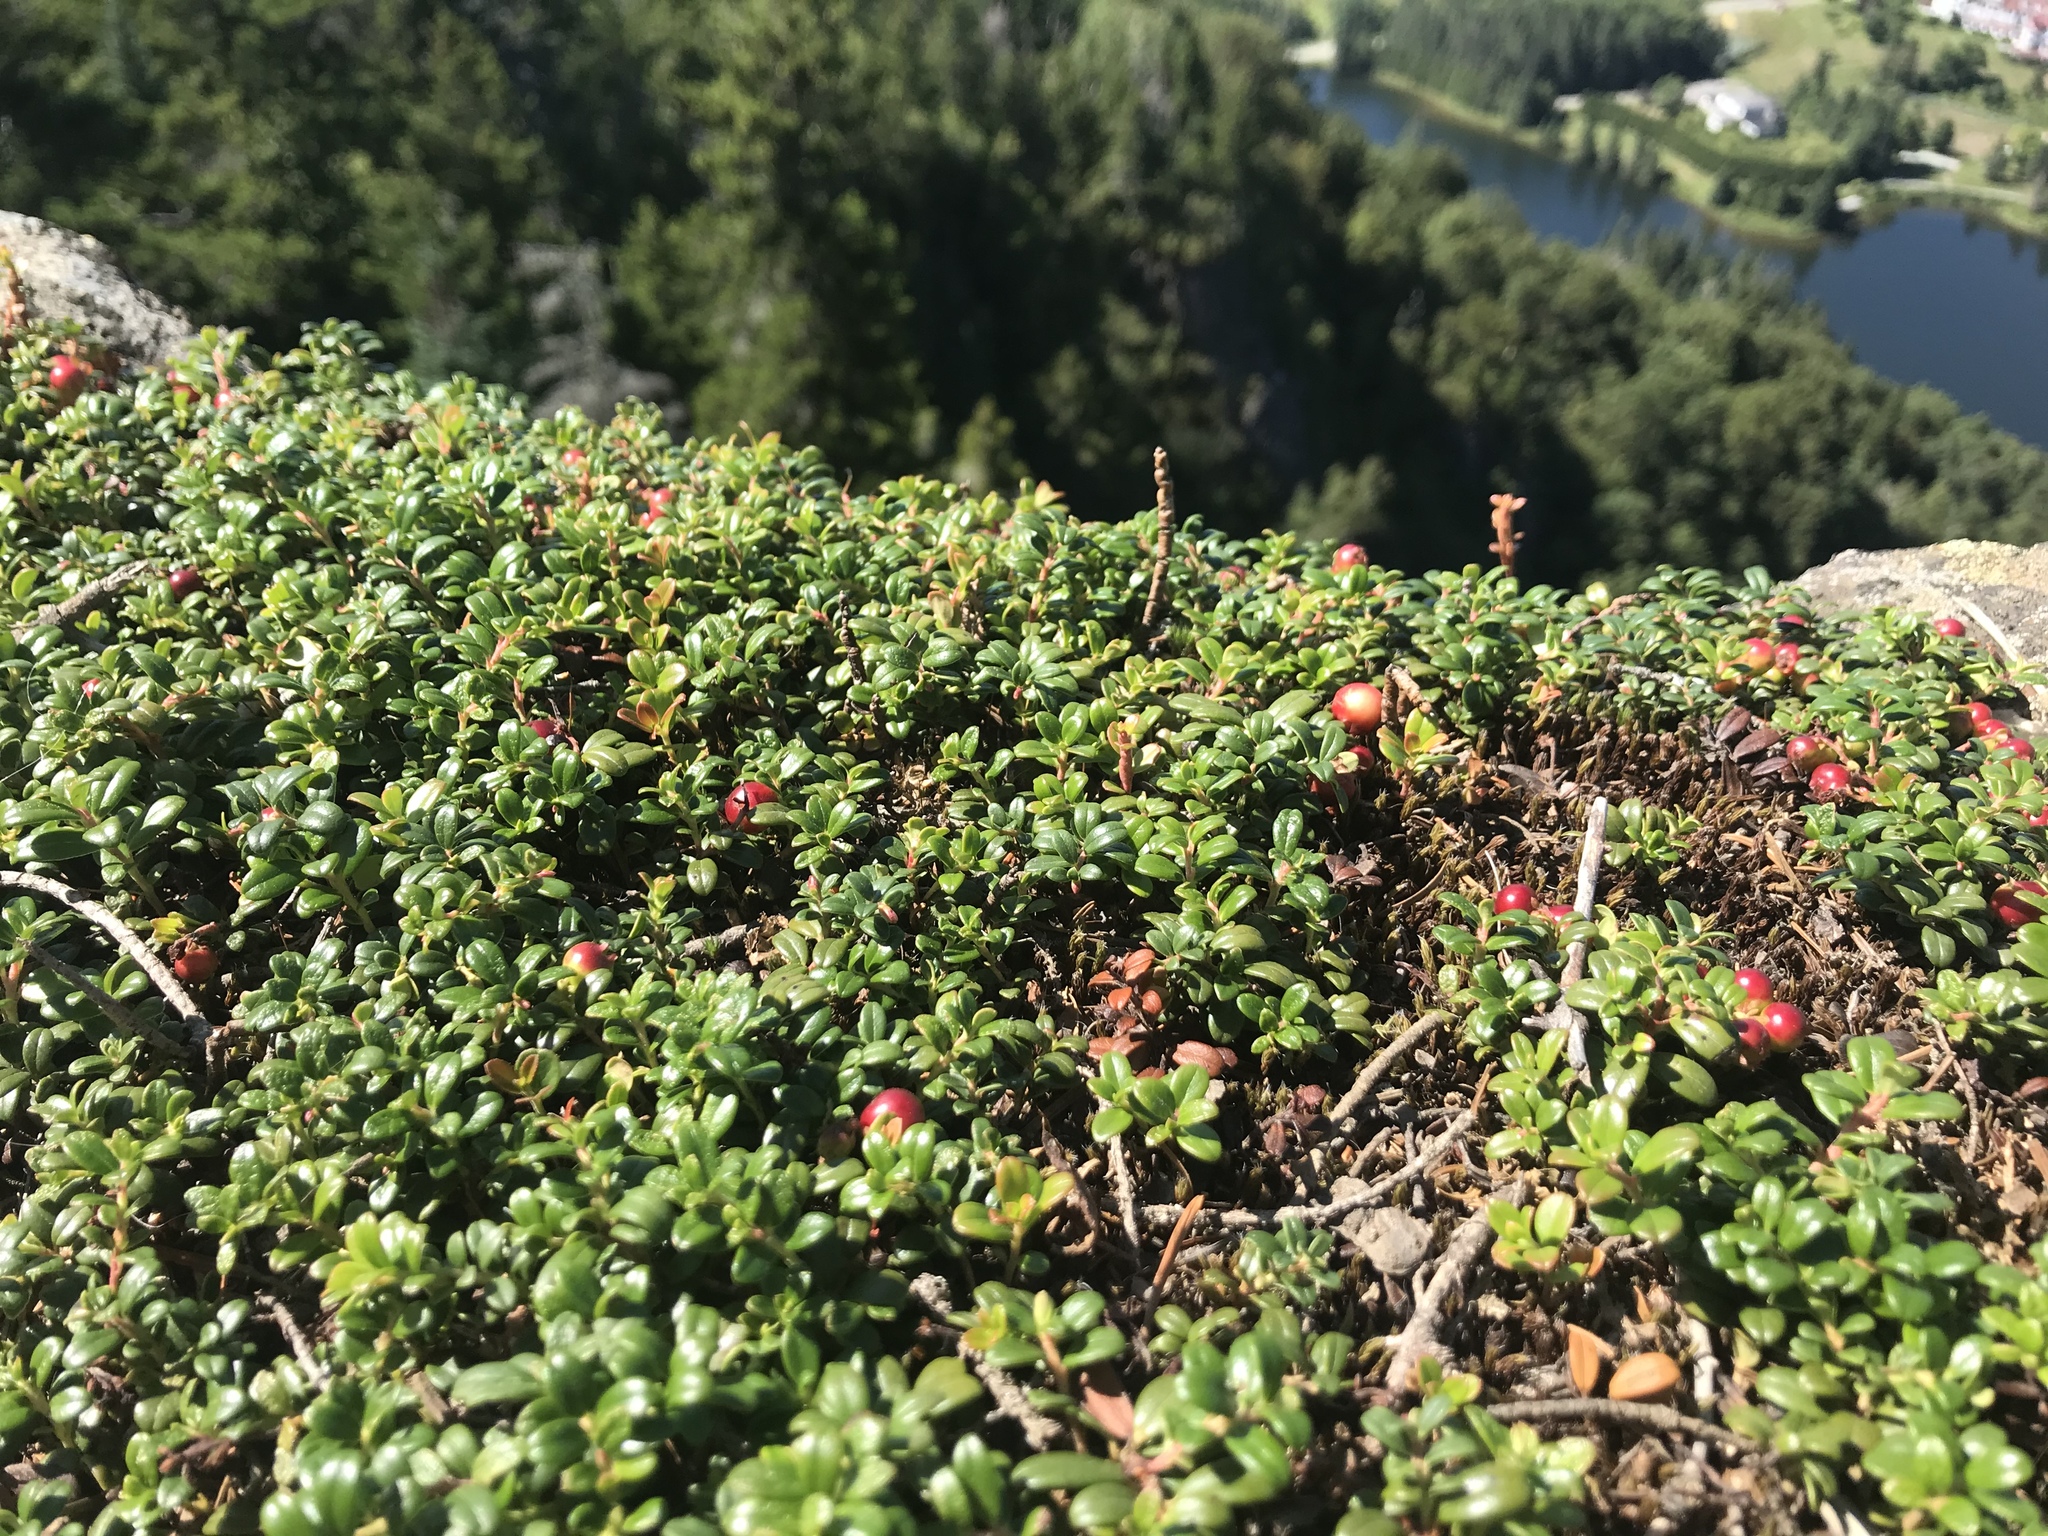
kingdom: Plantae
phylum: Tracheophyta
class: Magnoliopsida
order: Ericales
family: Ericaceae
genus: Vaccinium
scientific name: Vaccinium vitis-idaea
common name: Cowberry
